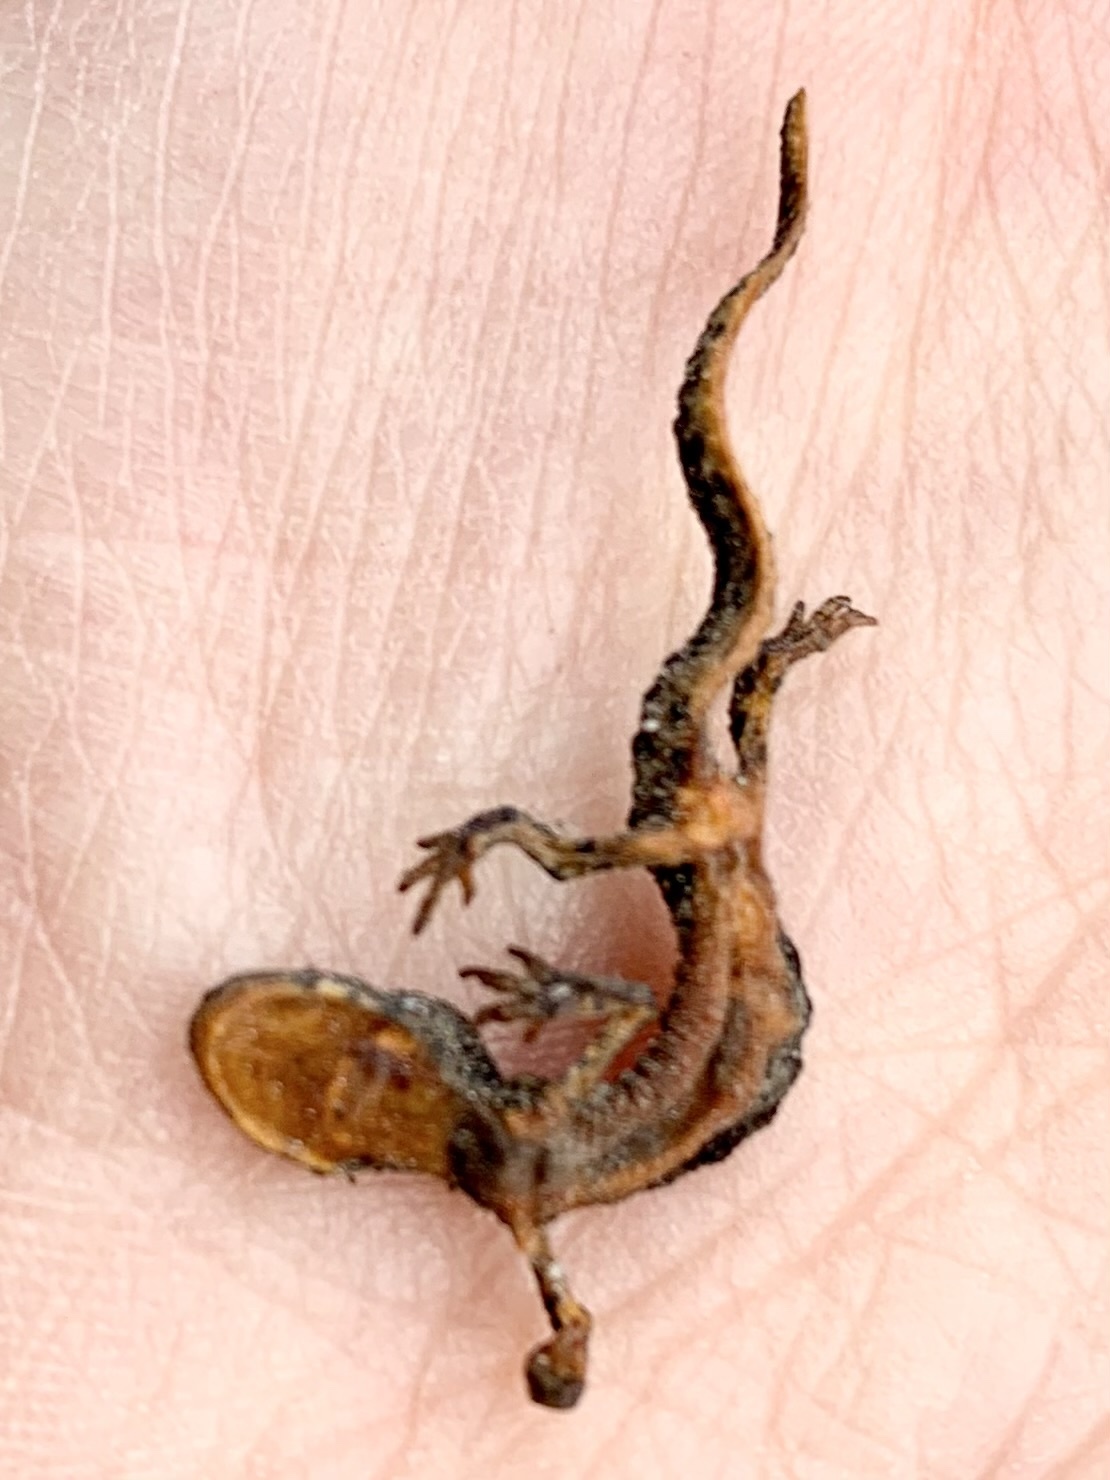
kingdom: Animalia
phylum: Chordata
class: Amphibia
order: Caudata
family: Salamandridae
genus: Ichthyosaura
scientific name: Ichthyosaura alpestris
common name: Alpine newt
